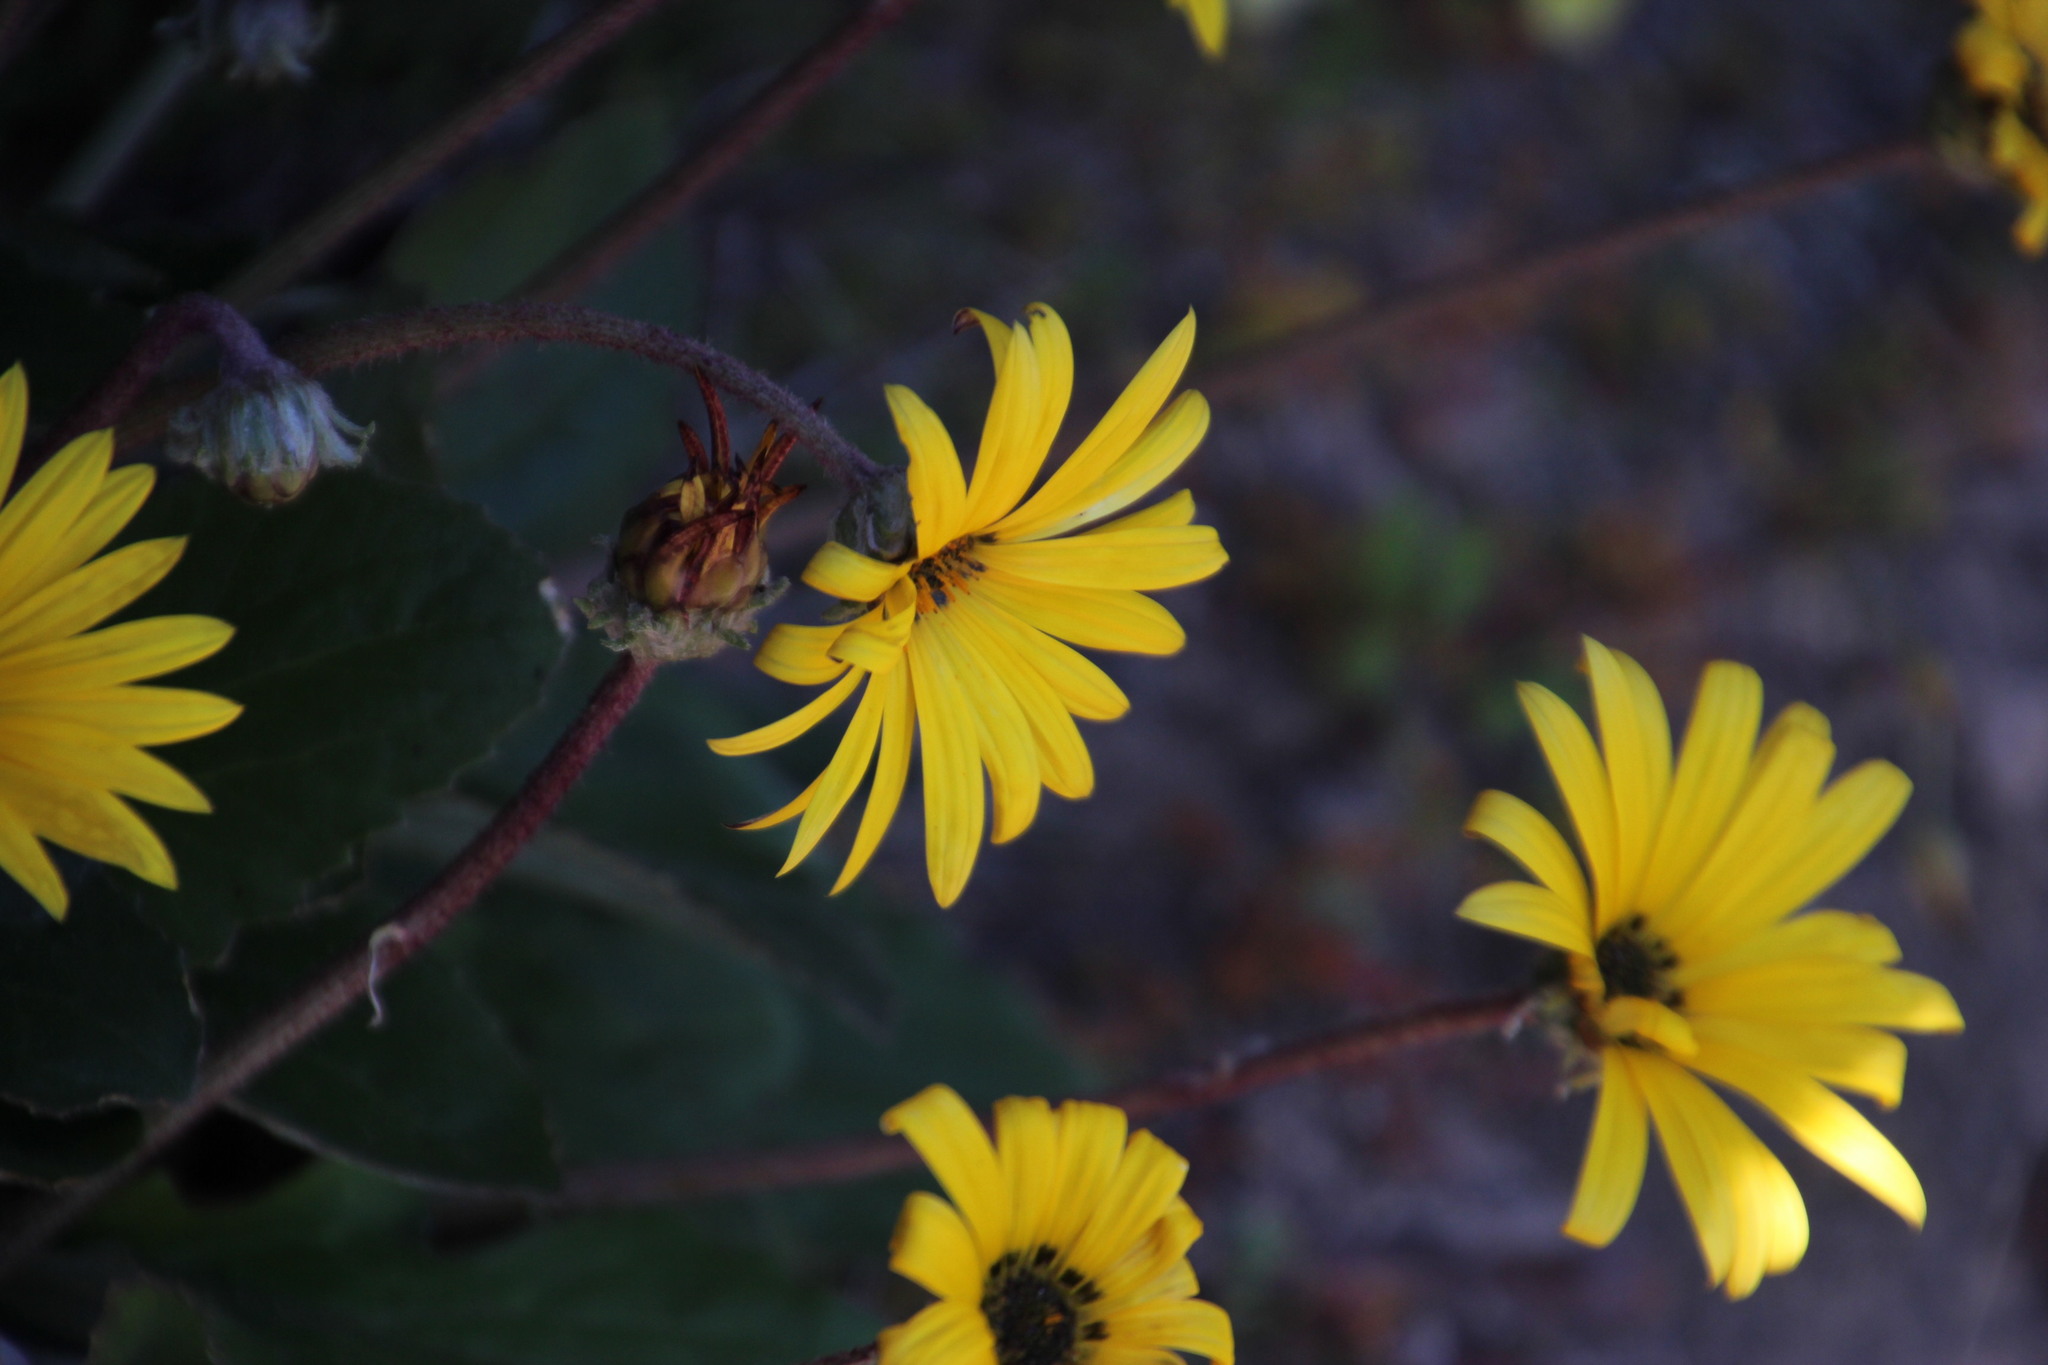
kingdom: Plantae
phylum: Tracheophyta
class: Magnoliopsida
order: Asterales
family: Asteraceae
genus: Arctotis
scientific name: Arctotis acaulis
